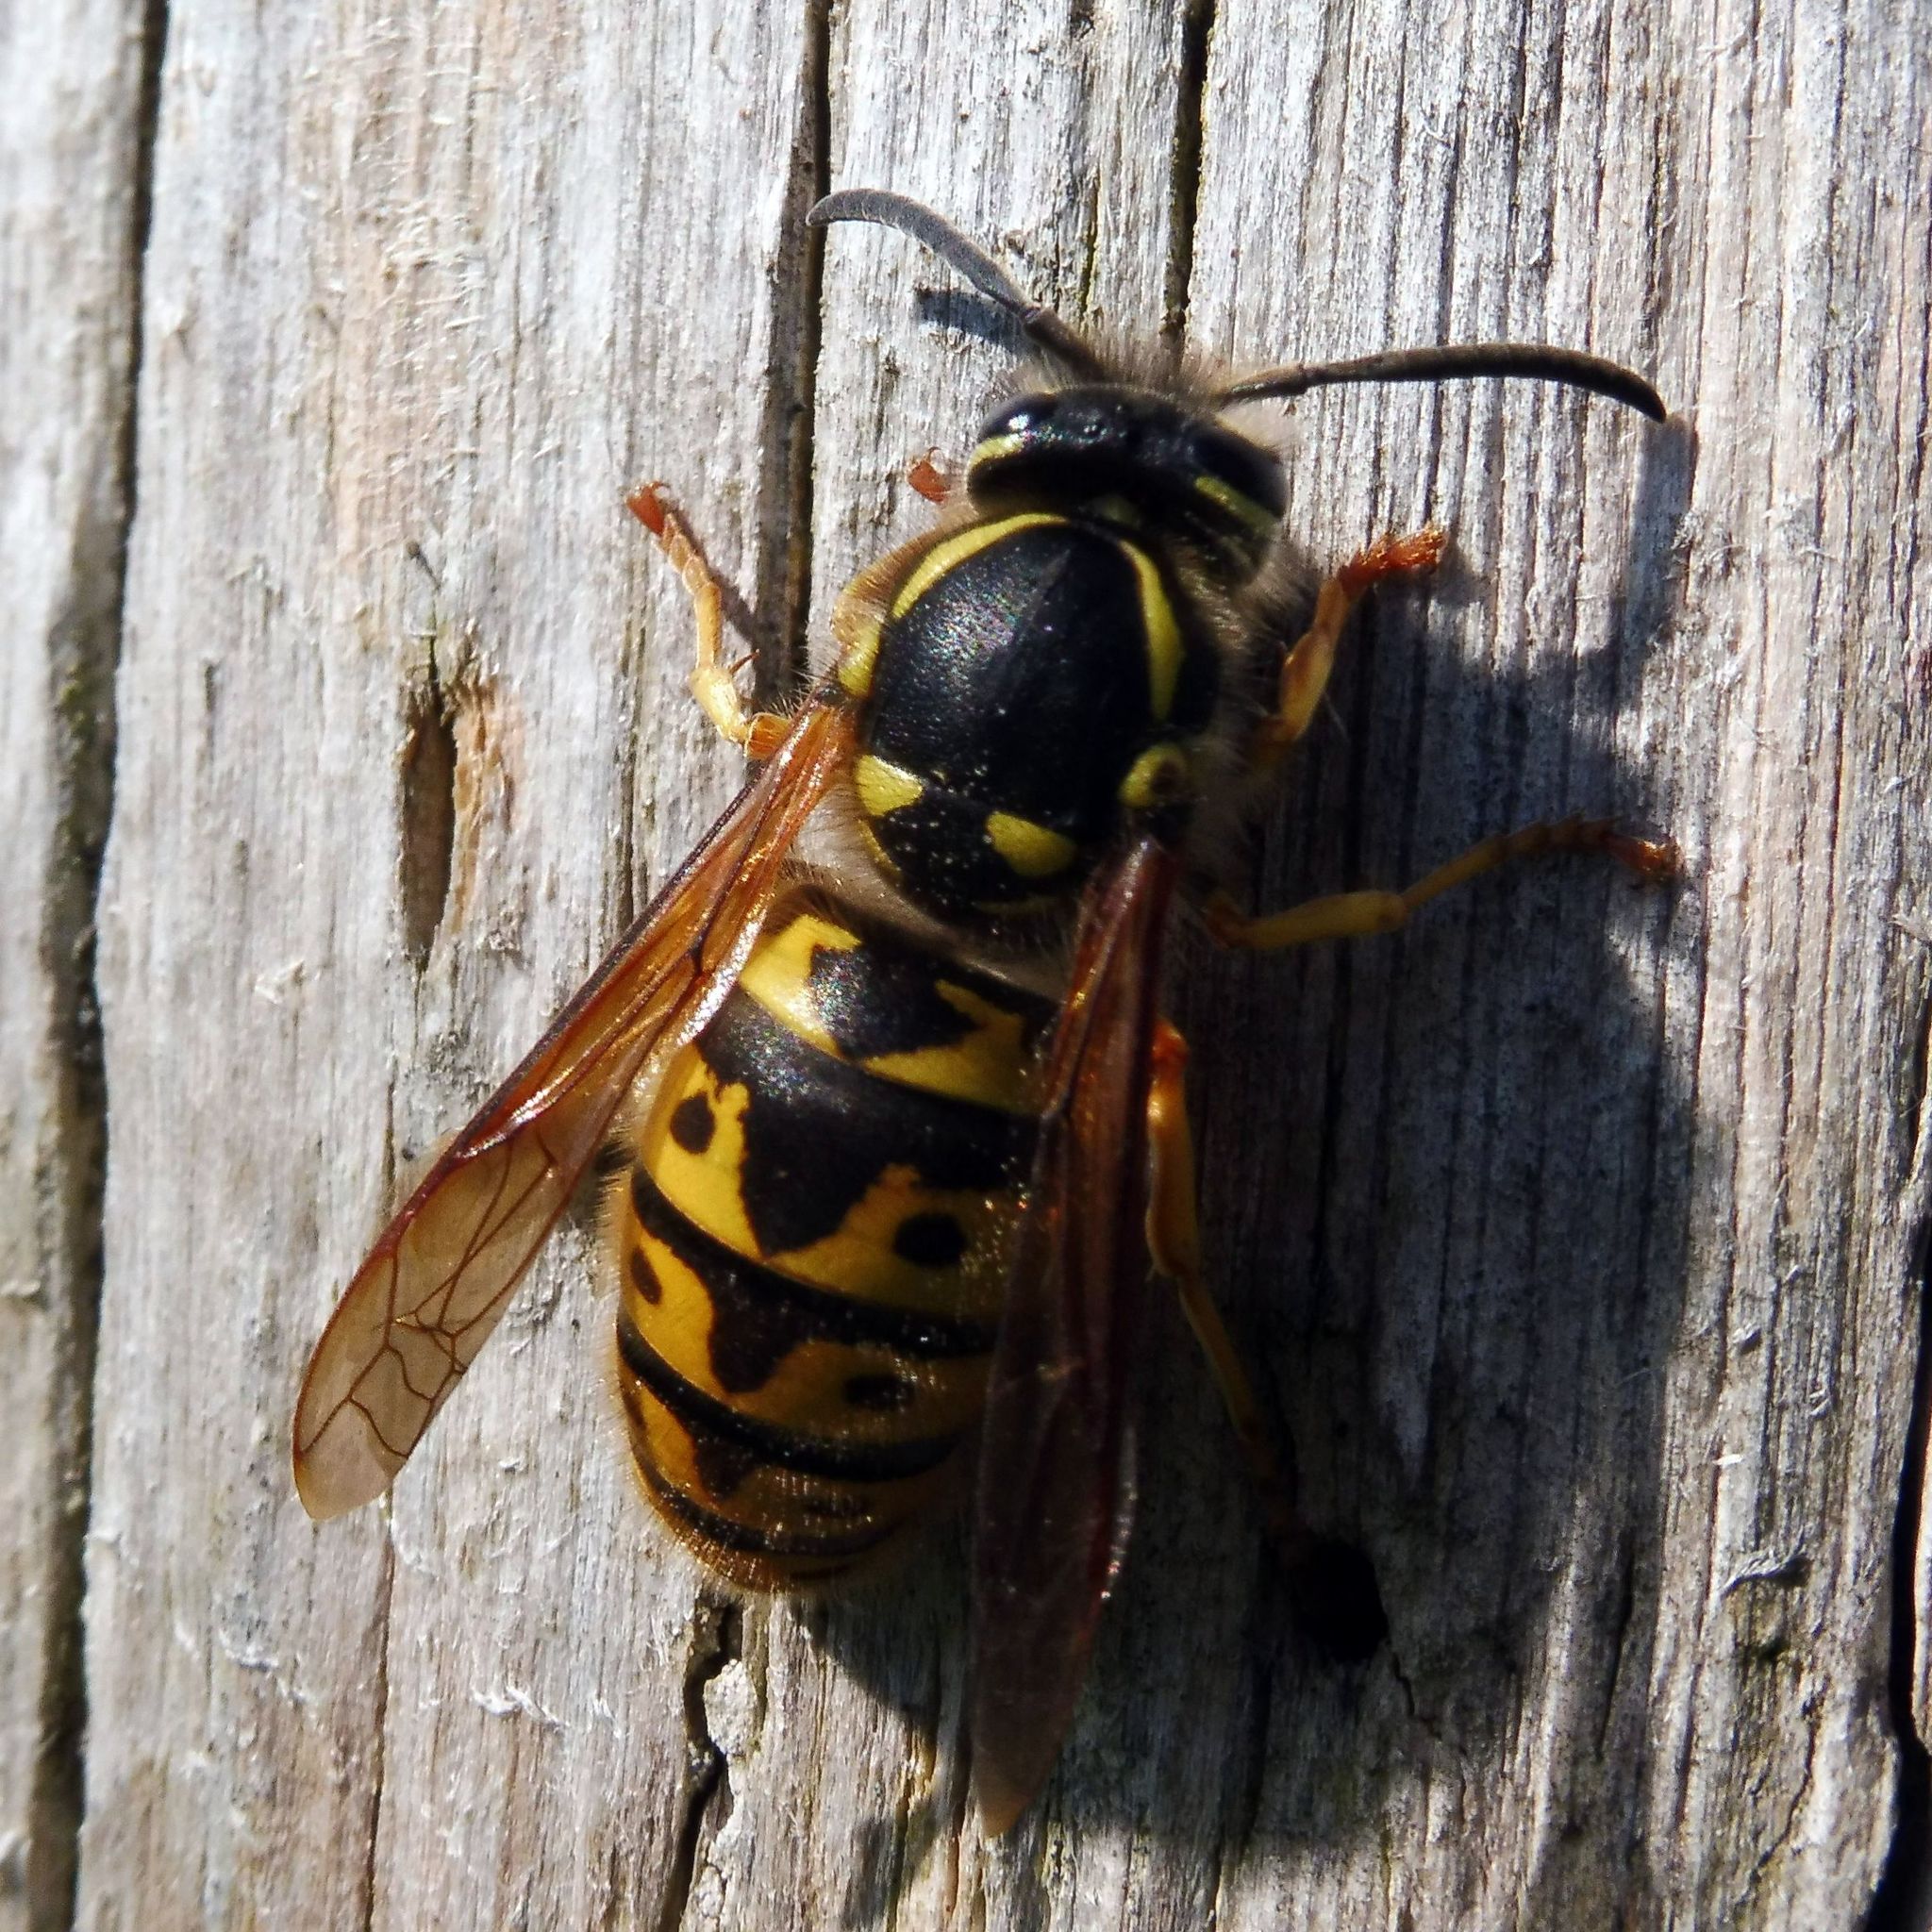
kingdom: Animalia
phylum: Arthropoda
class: Insecta
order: Hymenoptera
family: Vespidae
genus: Vespula
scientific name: Vespula germanica
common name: German wasp
